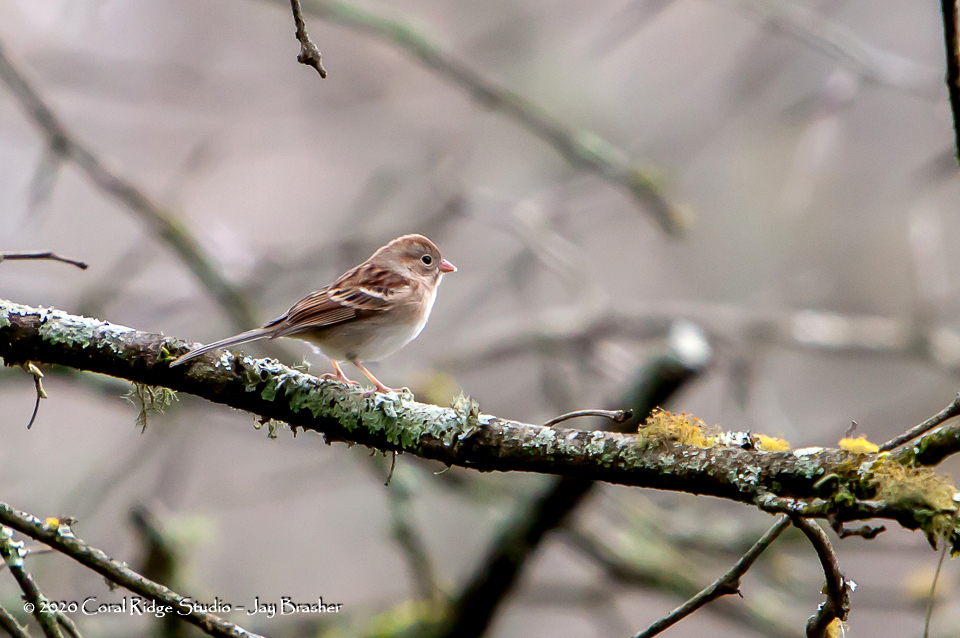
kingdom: Animalia
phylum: Chordata
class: Aves
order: Passeriformes
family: Passerellidae
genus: Spizella
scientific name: Spizella pusilla
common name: Field sparrow
